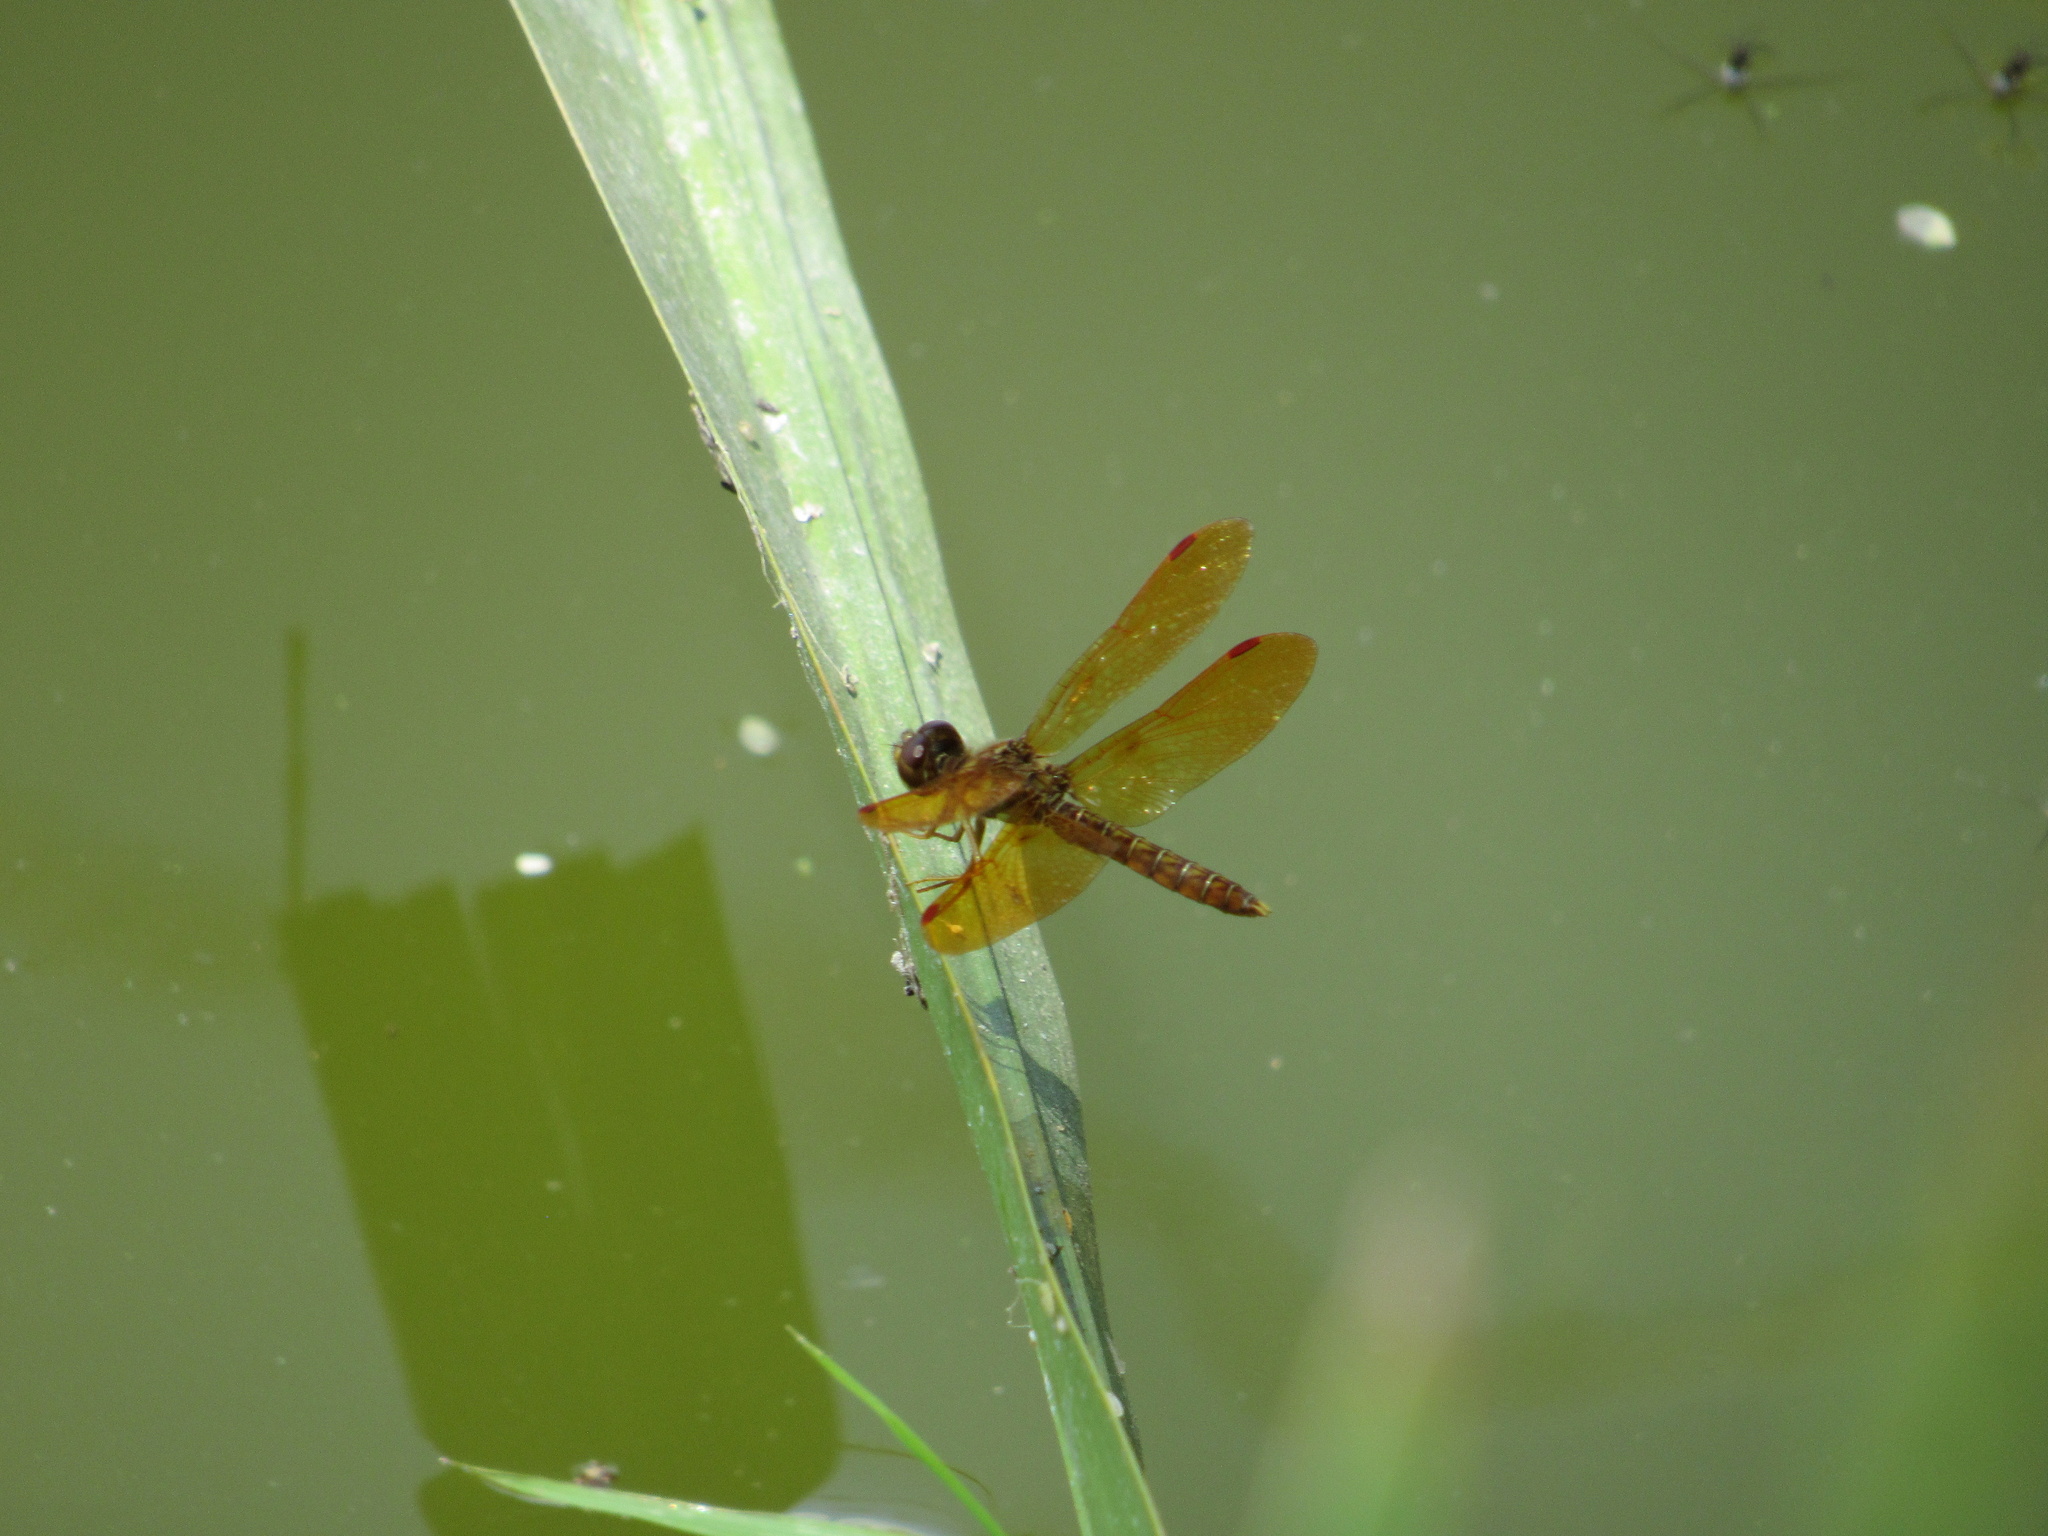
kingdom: Animalia
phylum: Arthropoda
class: Insecta
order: Odonata
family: Libellulidae
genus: Perithemis
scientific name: Perithemis tenera
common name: Eastern amberwing
